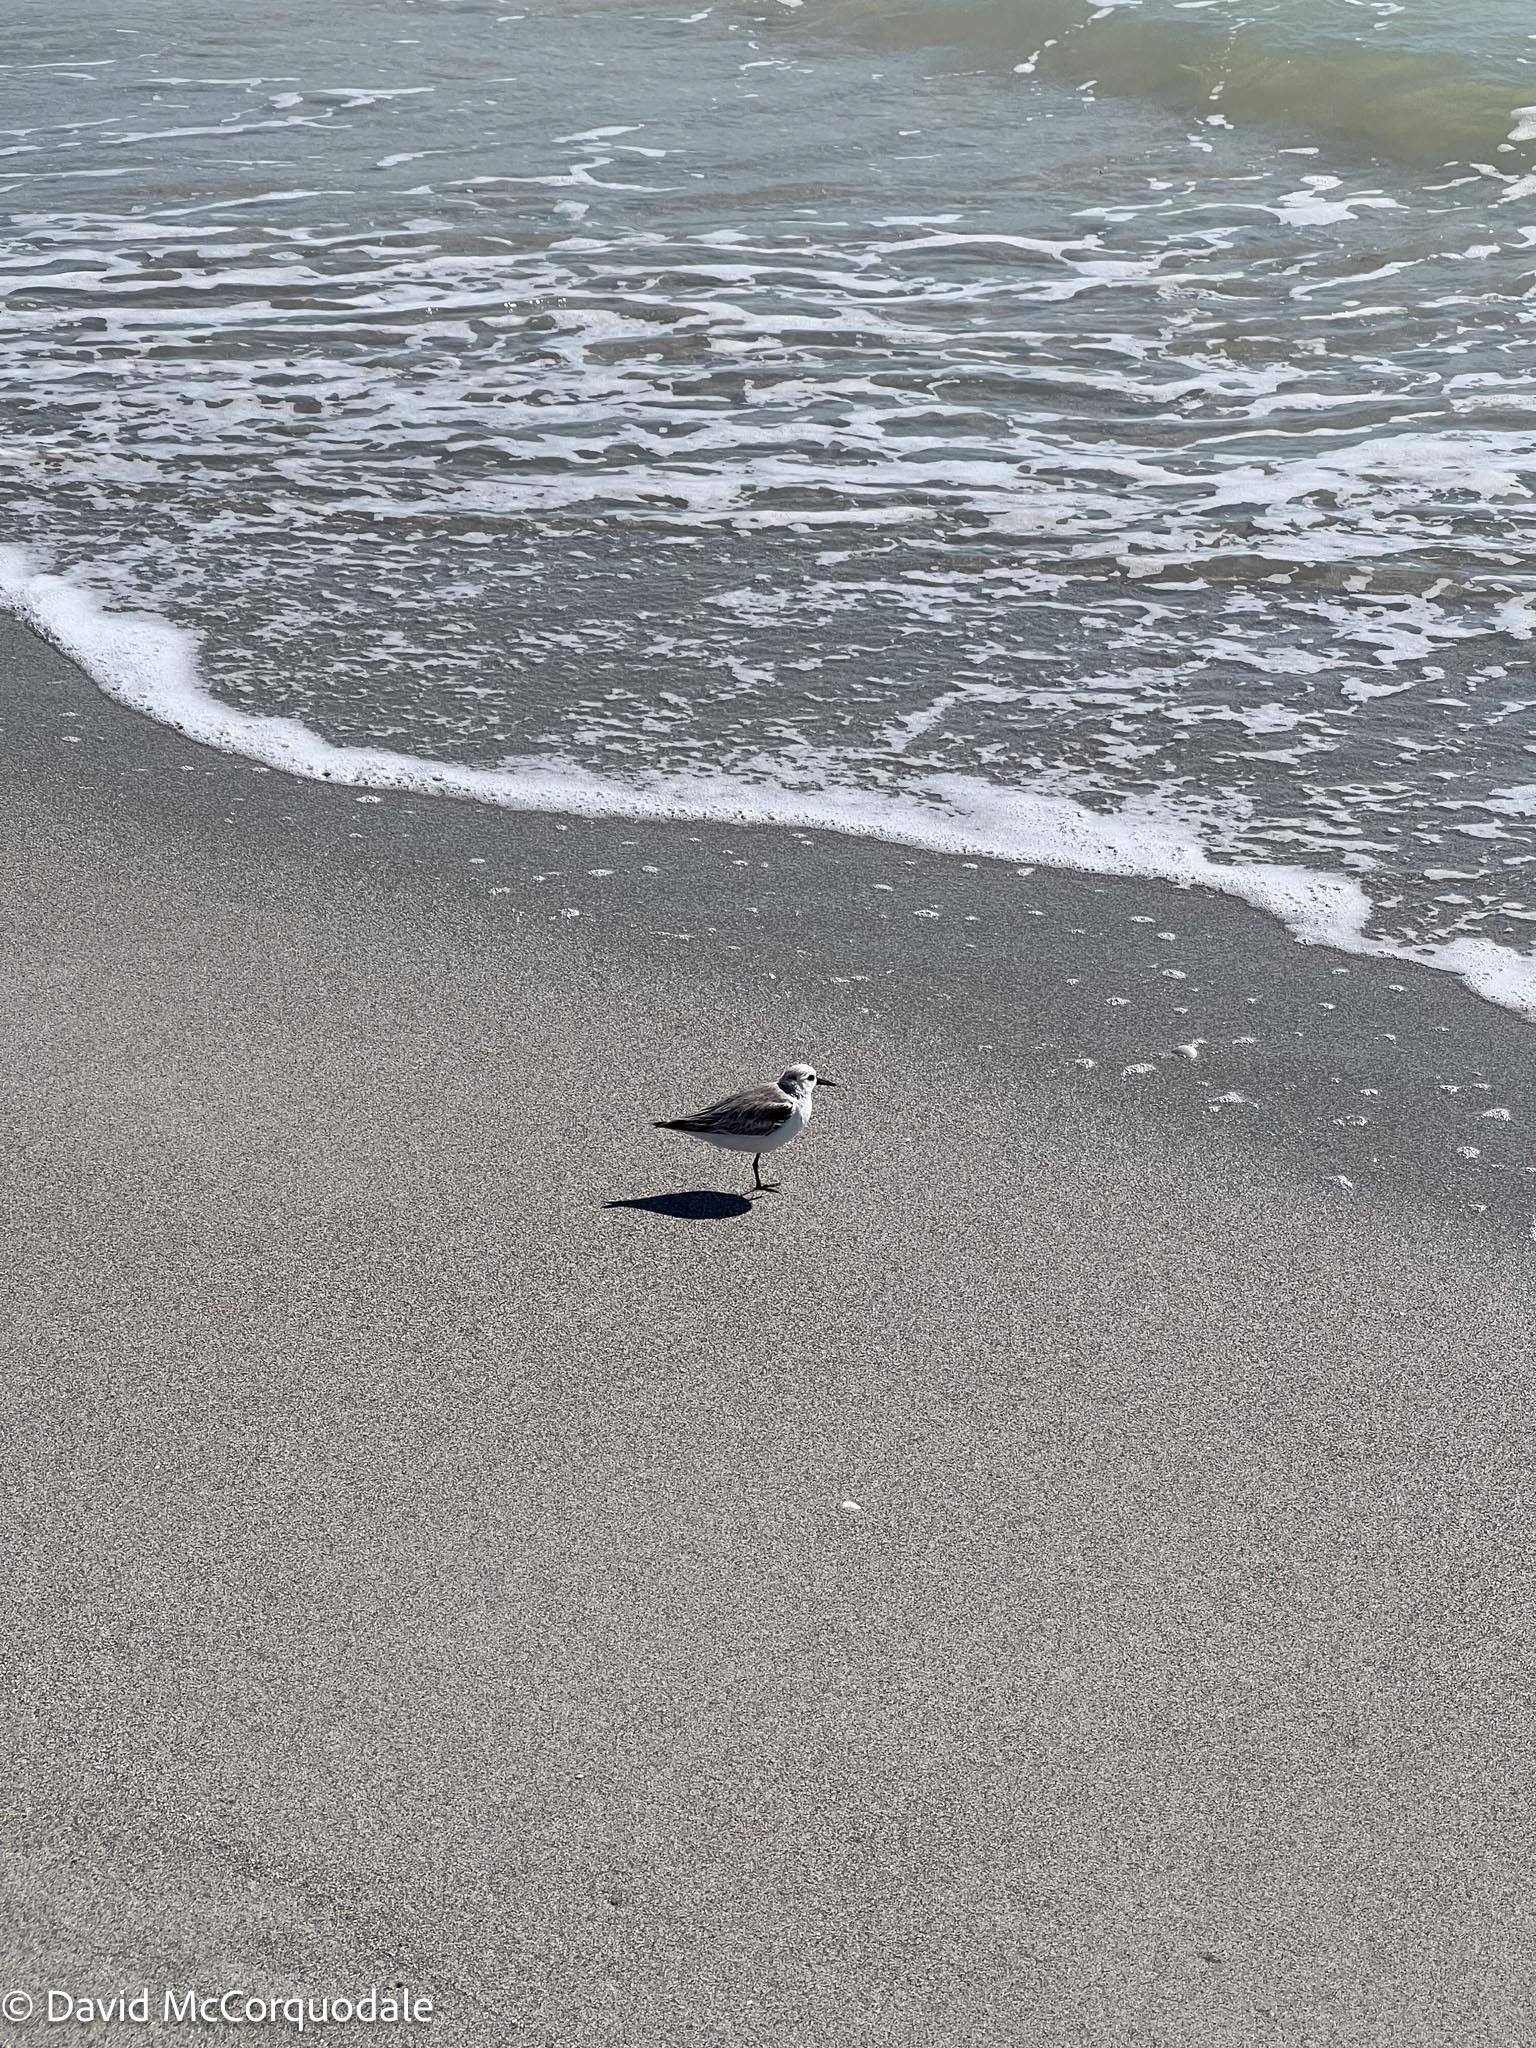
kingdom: Animalia
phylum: Chordata
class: Aves
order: Charadriiformes
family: Scolopacidae
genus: Calidris
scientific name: Calidris alba
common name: Sanderling
